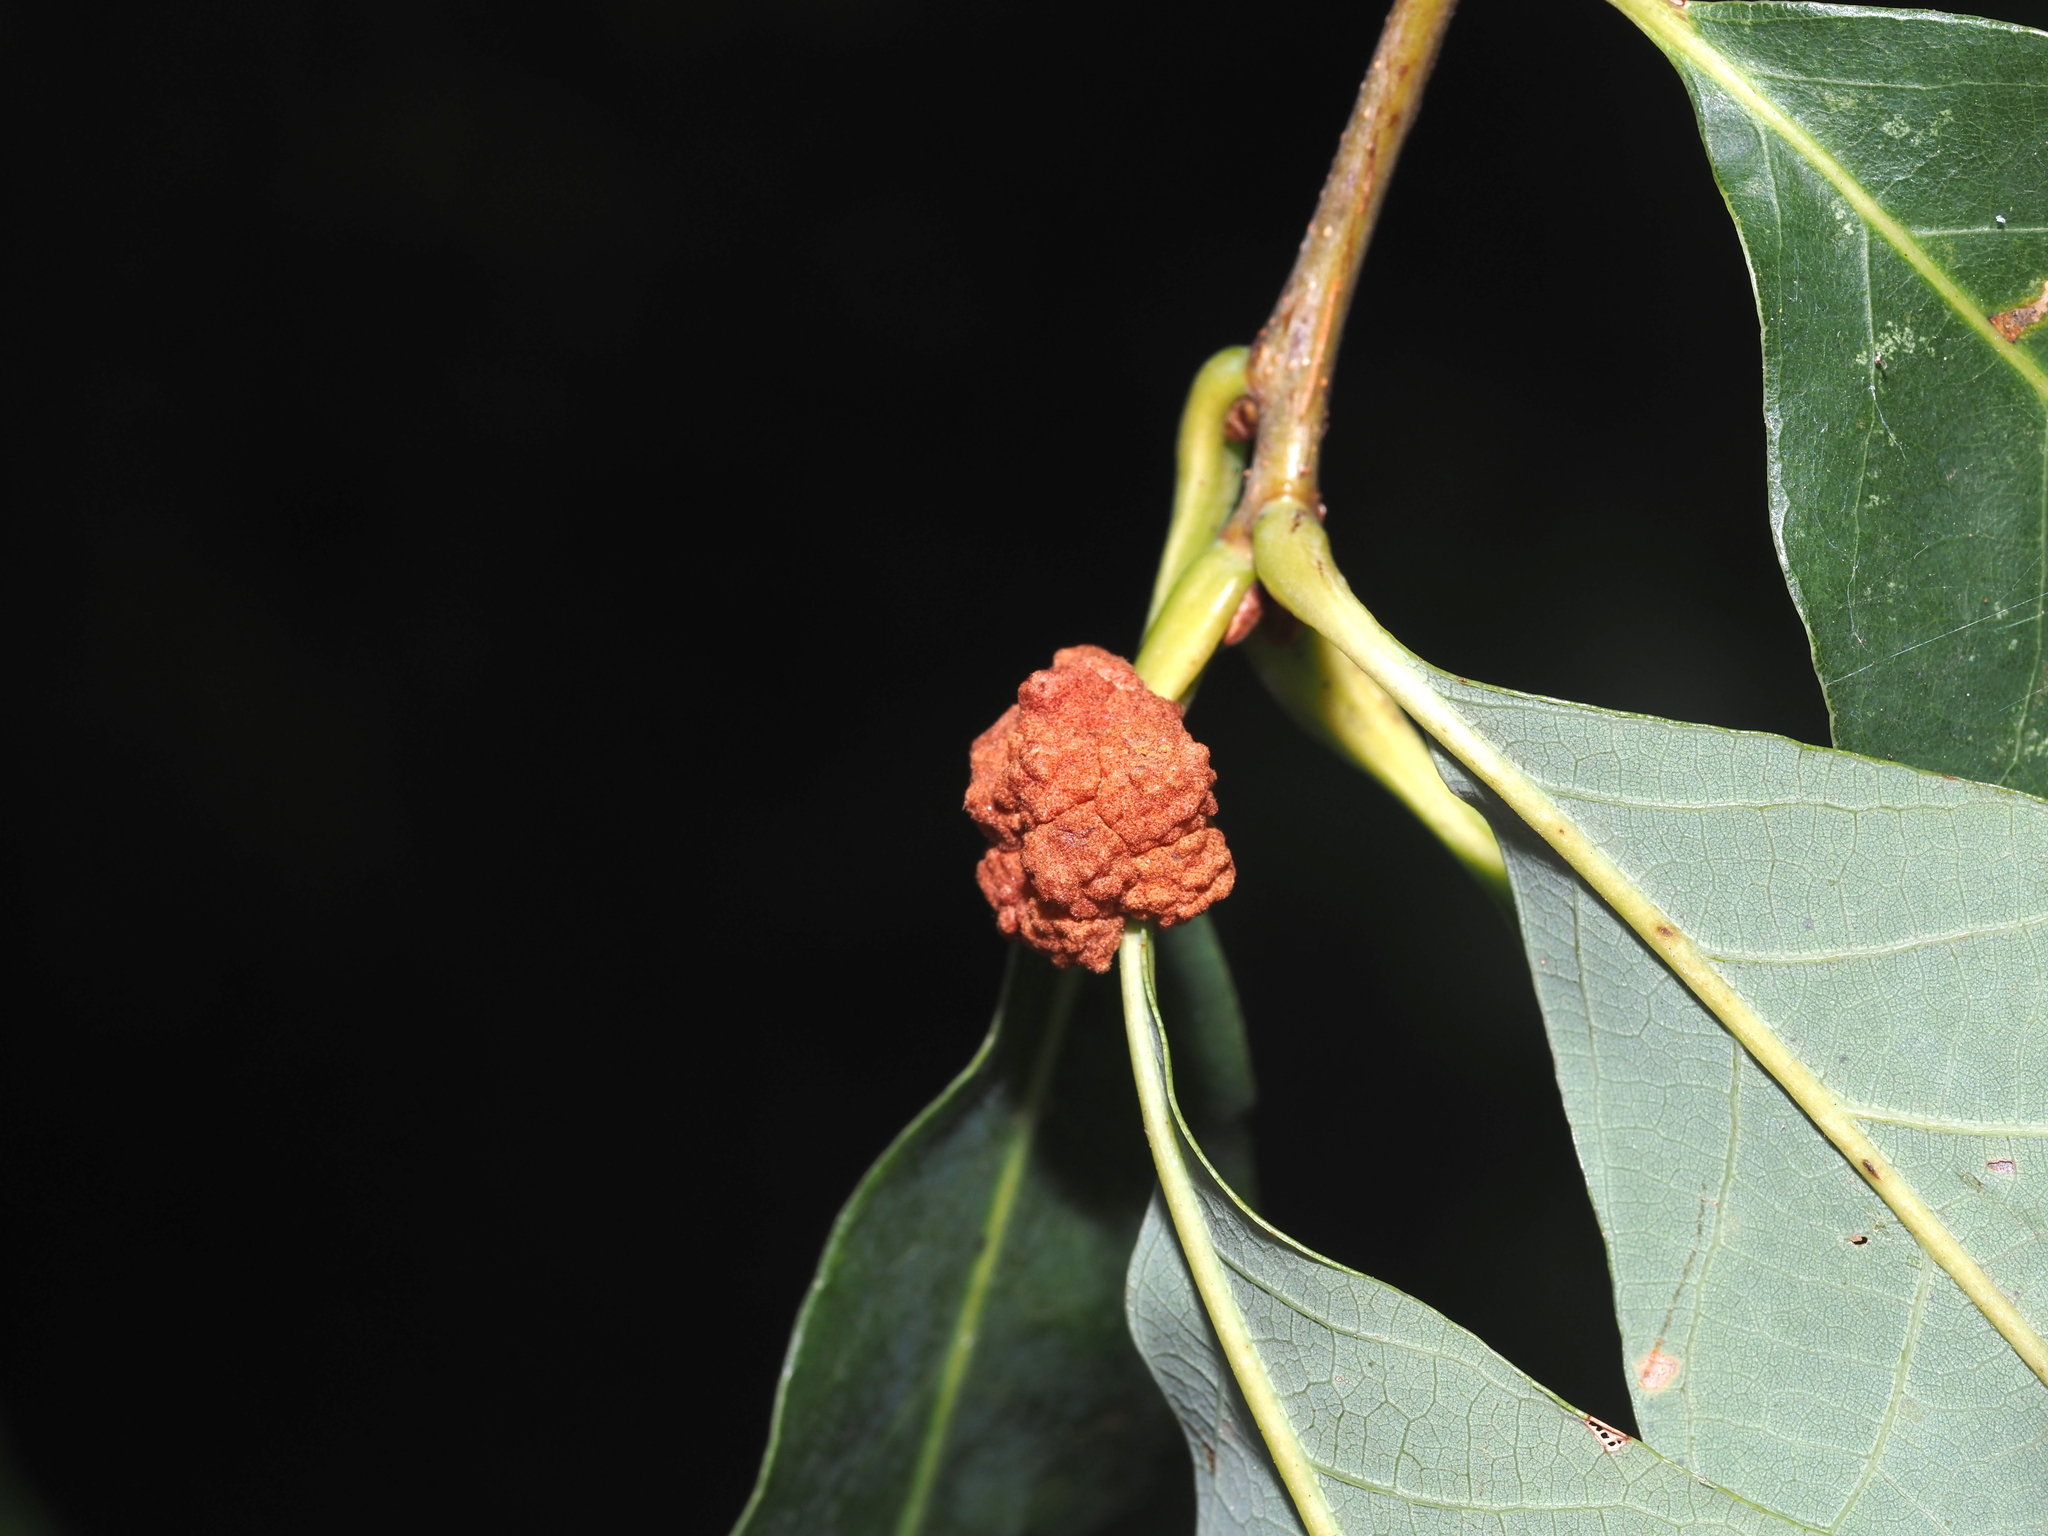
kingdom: Animalia
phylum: Arthropoda
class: Insecta
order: Hymenoptera
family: Cynipidae
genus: Andricus
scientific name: Andricus
